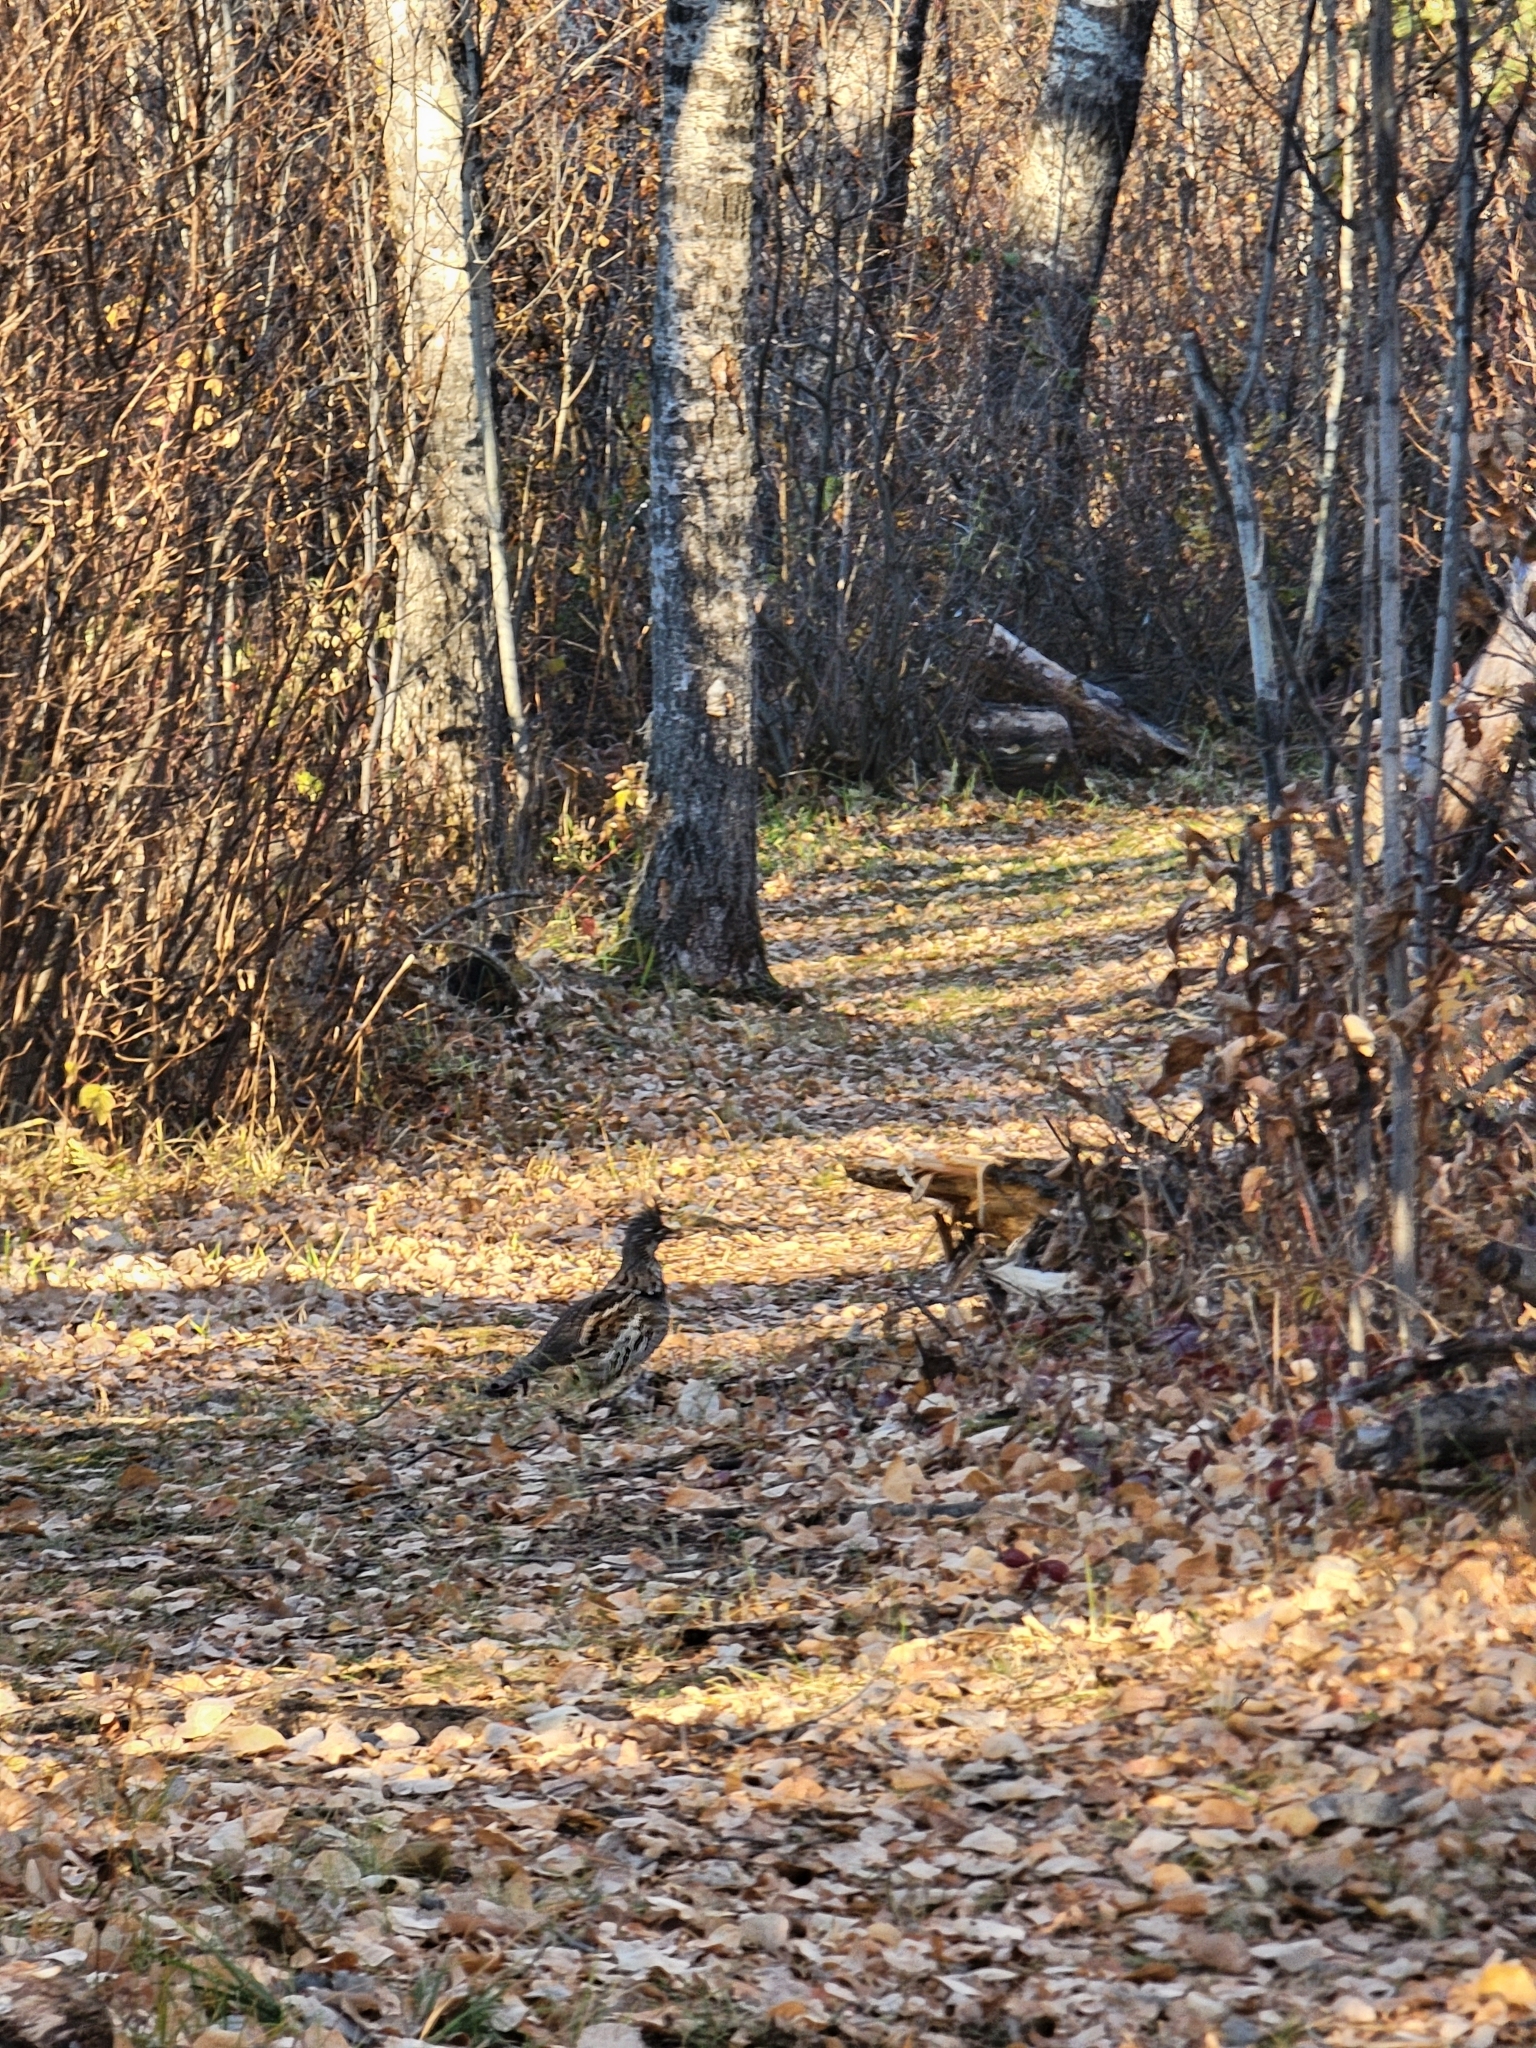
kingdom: Animalia
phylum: Chordata
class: Aves
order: Galliformes
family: Phasianidae
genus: Bonasa
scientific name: Bonasa umbellus
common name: Ruffed grouse
